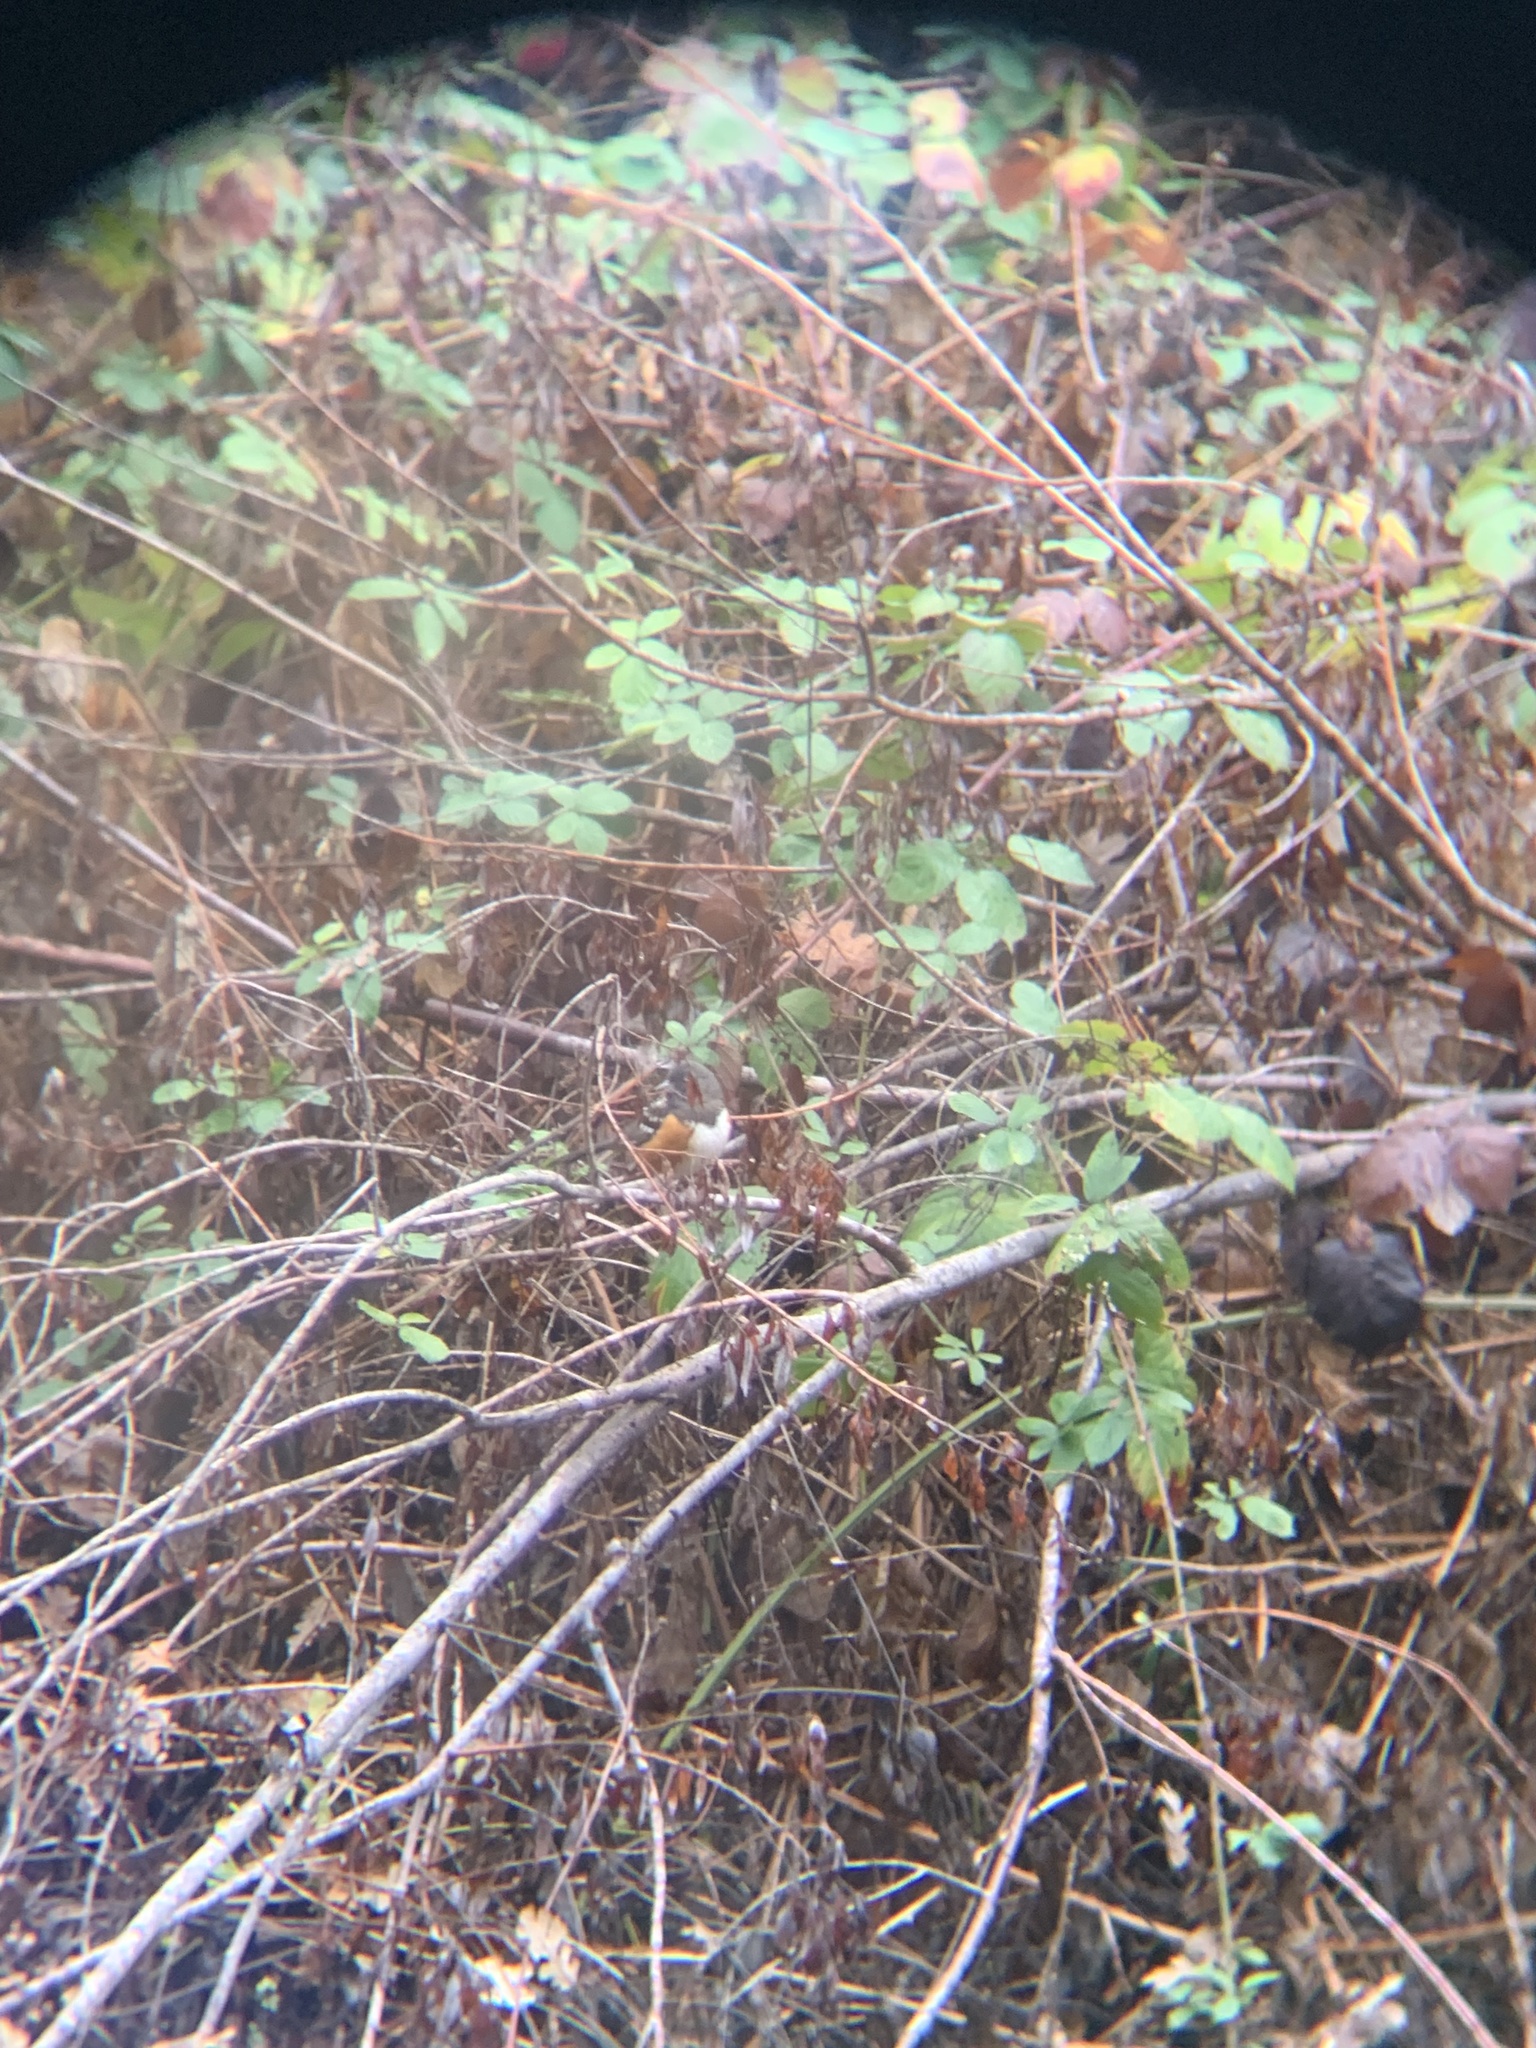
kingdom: Animalia
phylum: Chordata
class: Aves
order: Passeriformes
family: Passerellidae
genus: Pipilo
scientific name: Pipilo maculatus
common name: Spotted towhee
